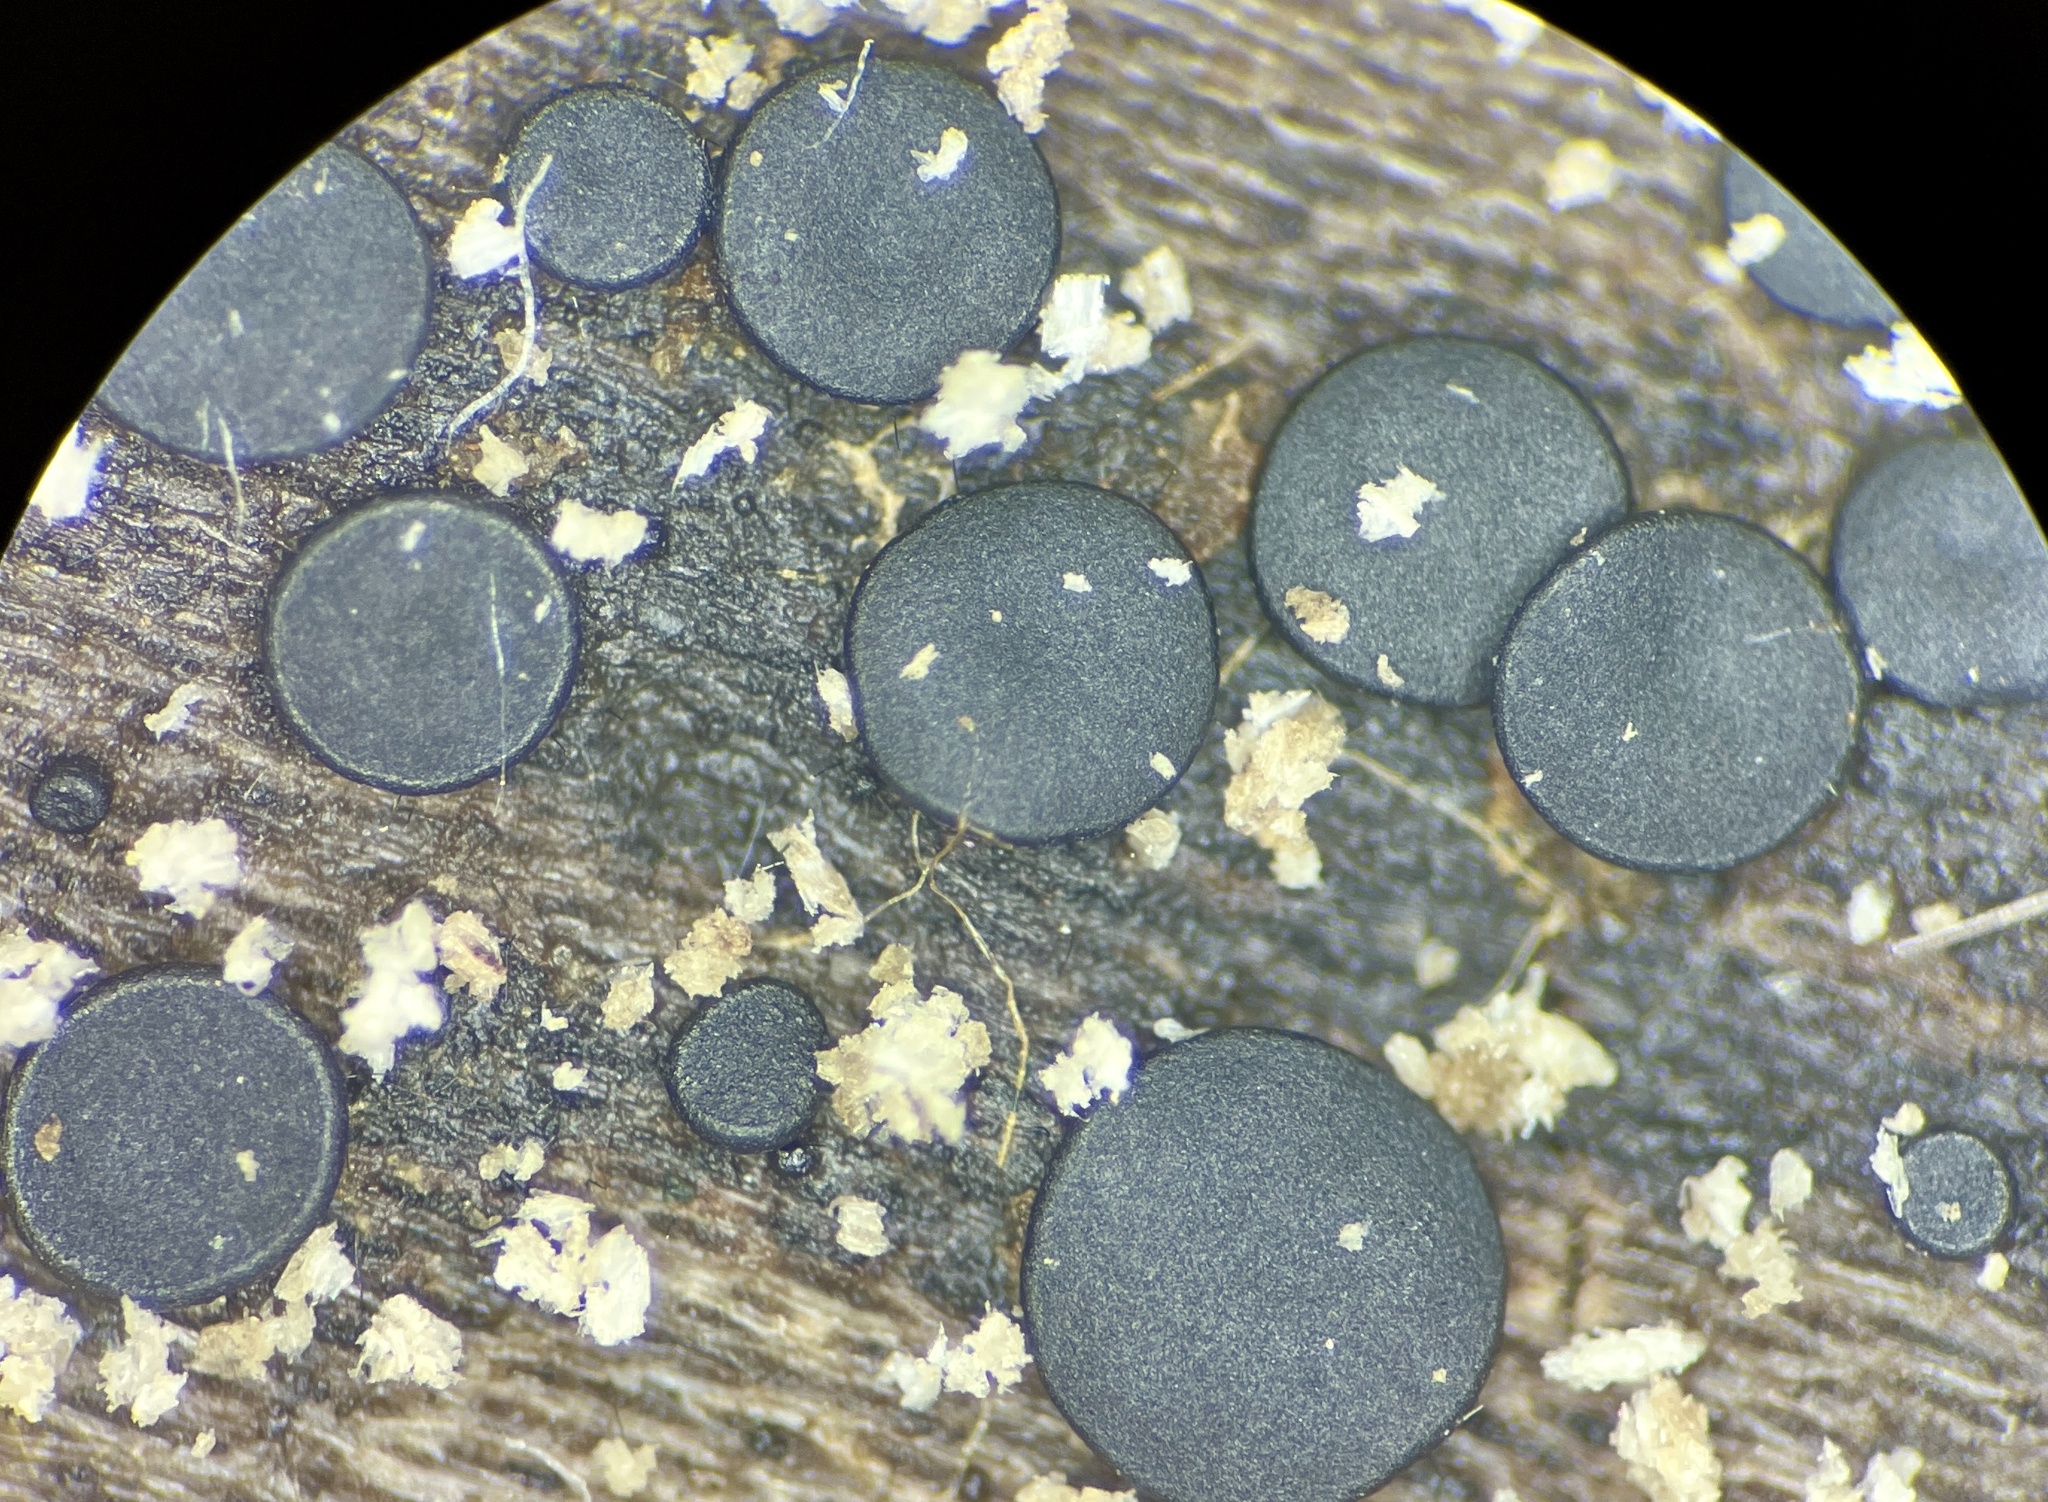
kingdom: Fungi
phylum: Ascomycota
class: Eurotiomycetes
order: Sclerococcales
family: Sclerococcaceae
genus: Sclerococcum
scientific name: Sclerococcum stygium
